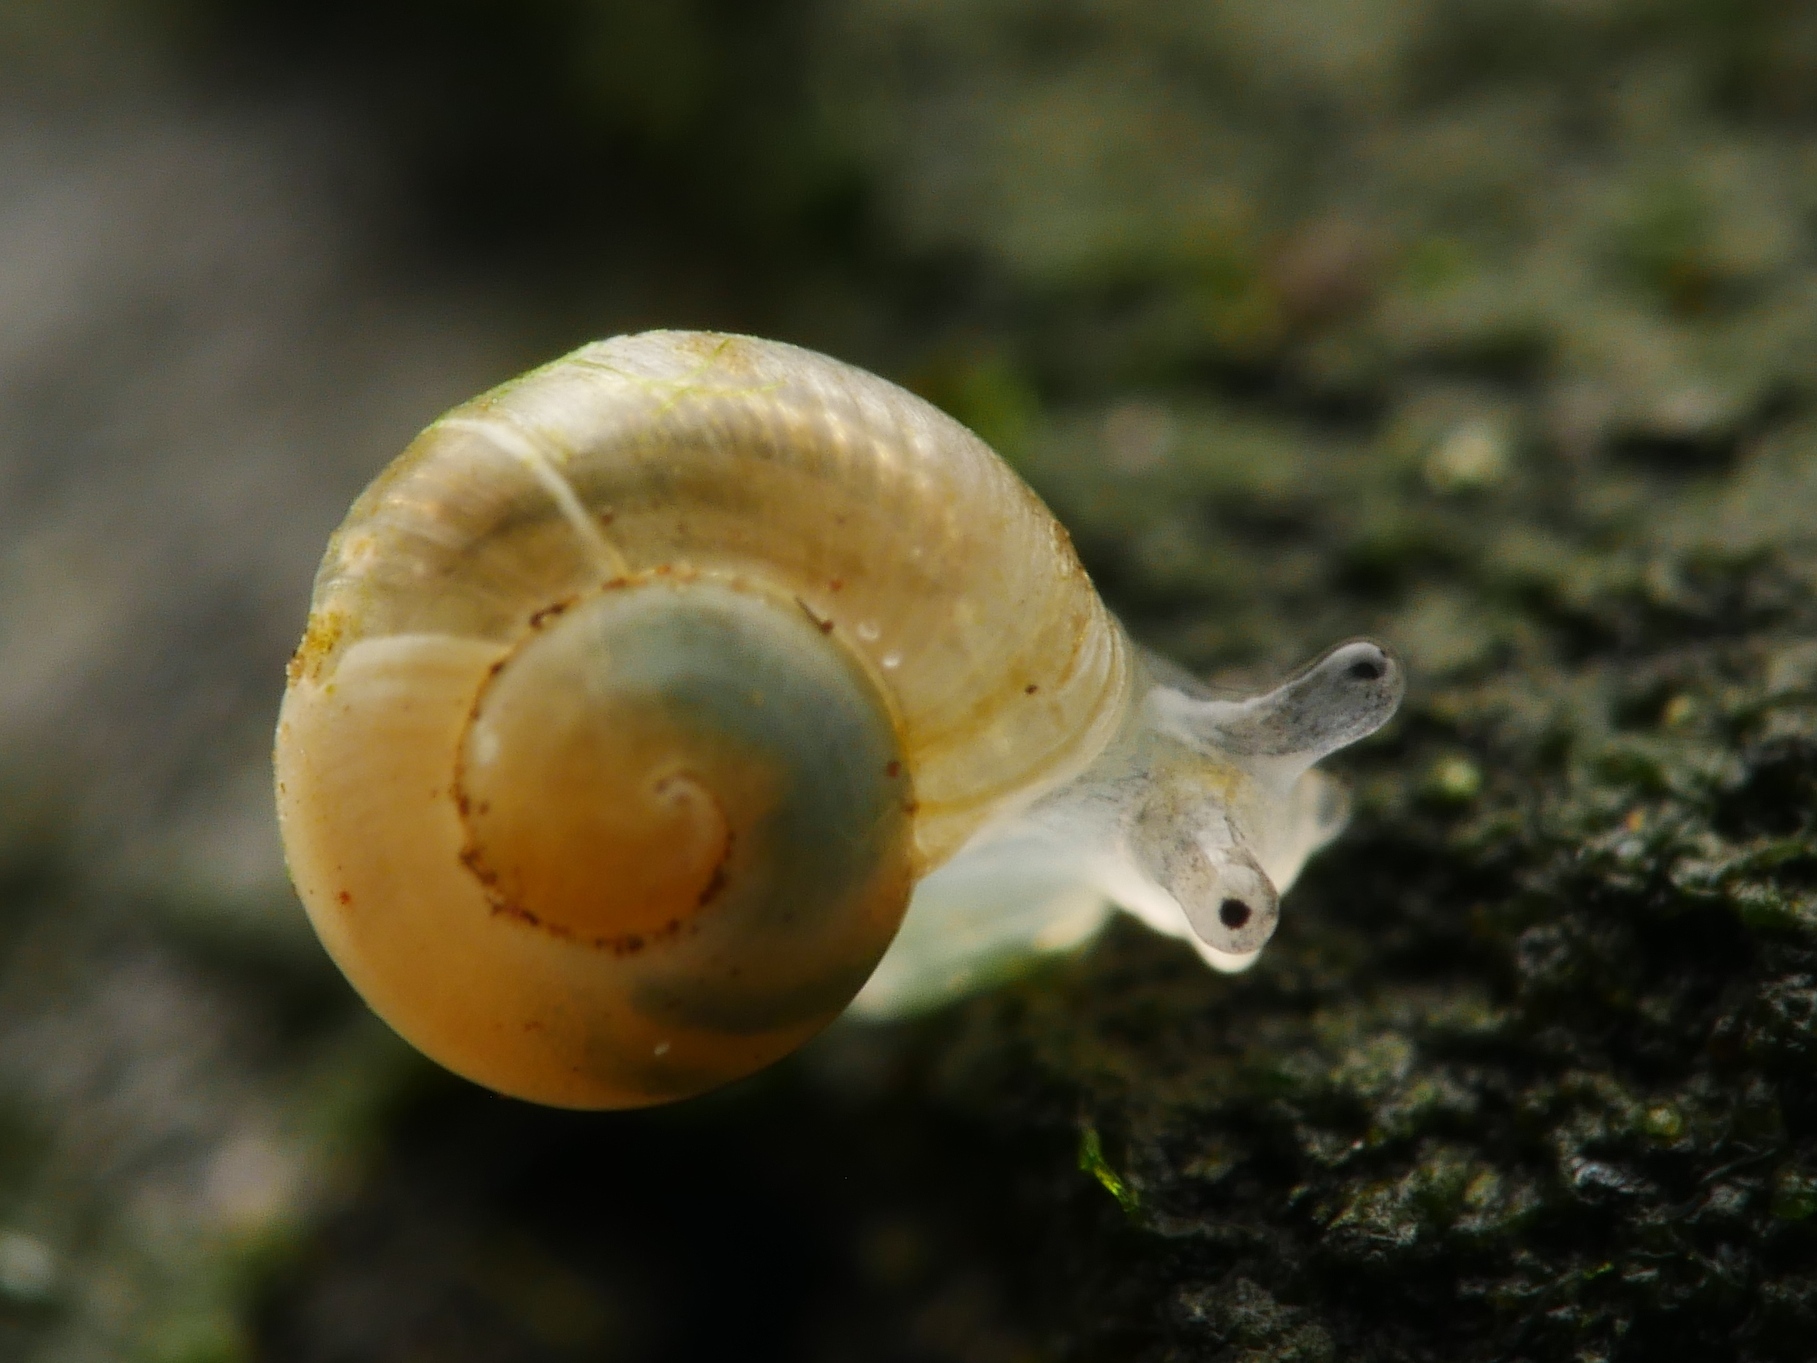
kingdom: Animalia
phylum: Mollusca
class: Gastropoda
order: Stylommatophora
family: Discidae
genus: Discus
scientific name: Discus rotundatus
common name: Rounded snail
